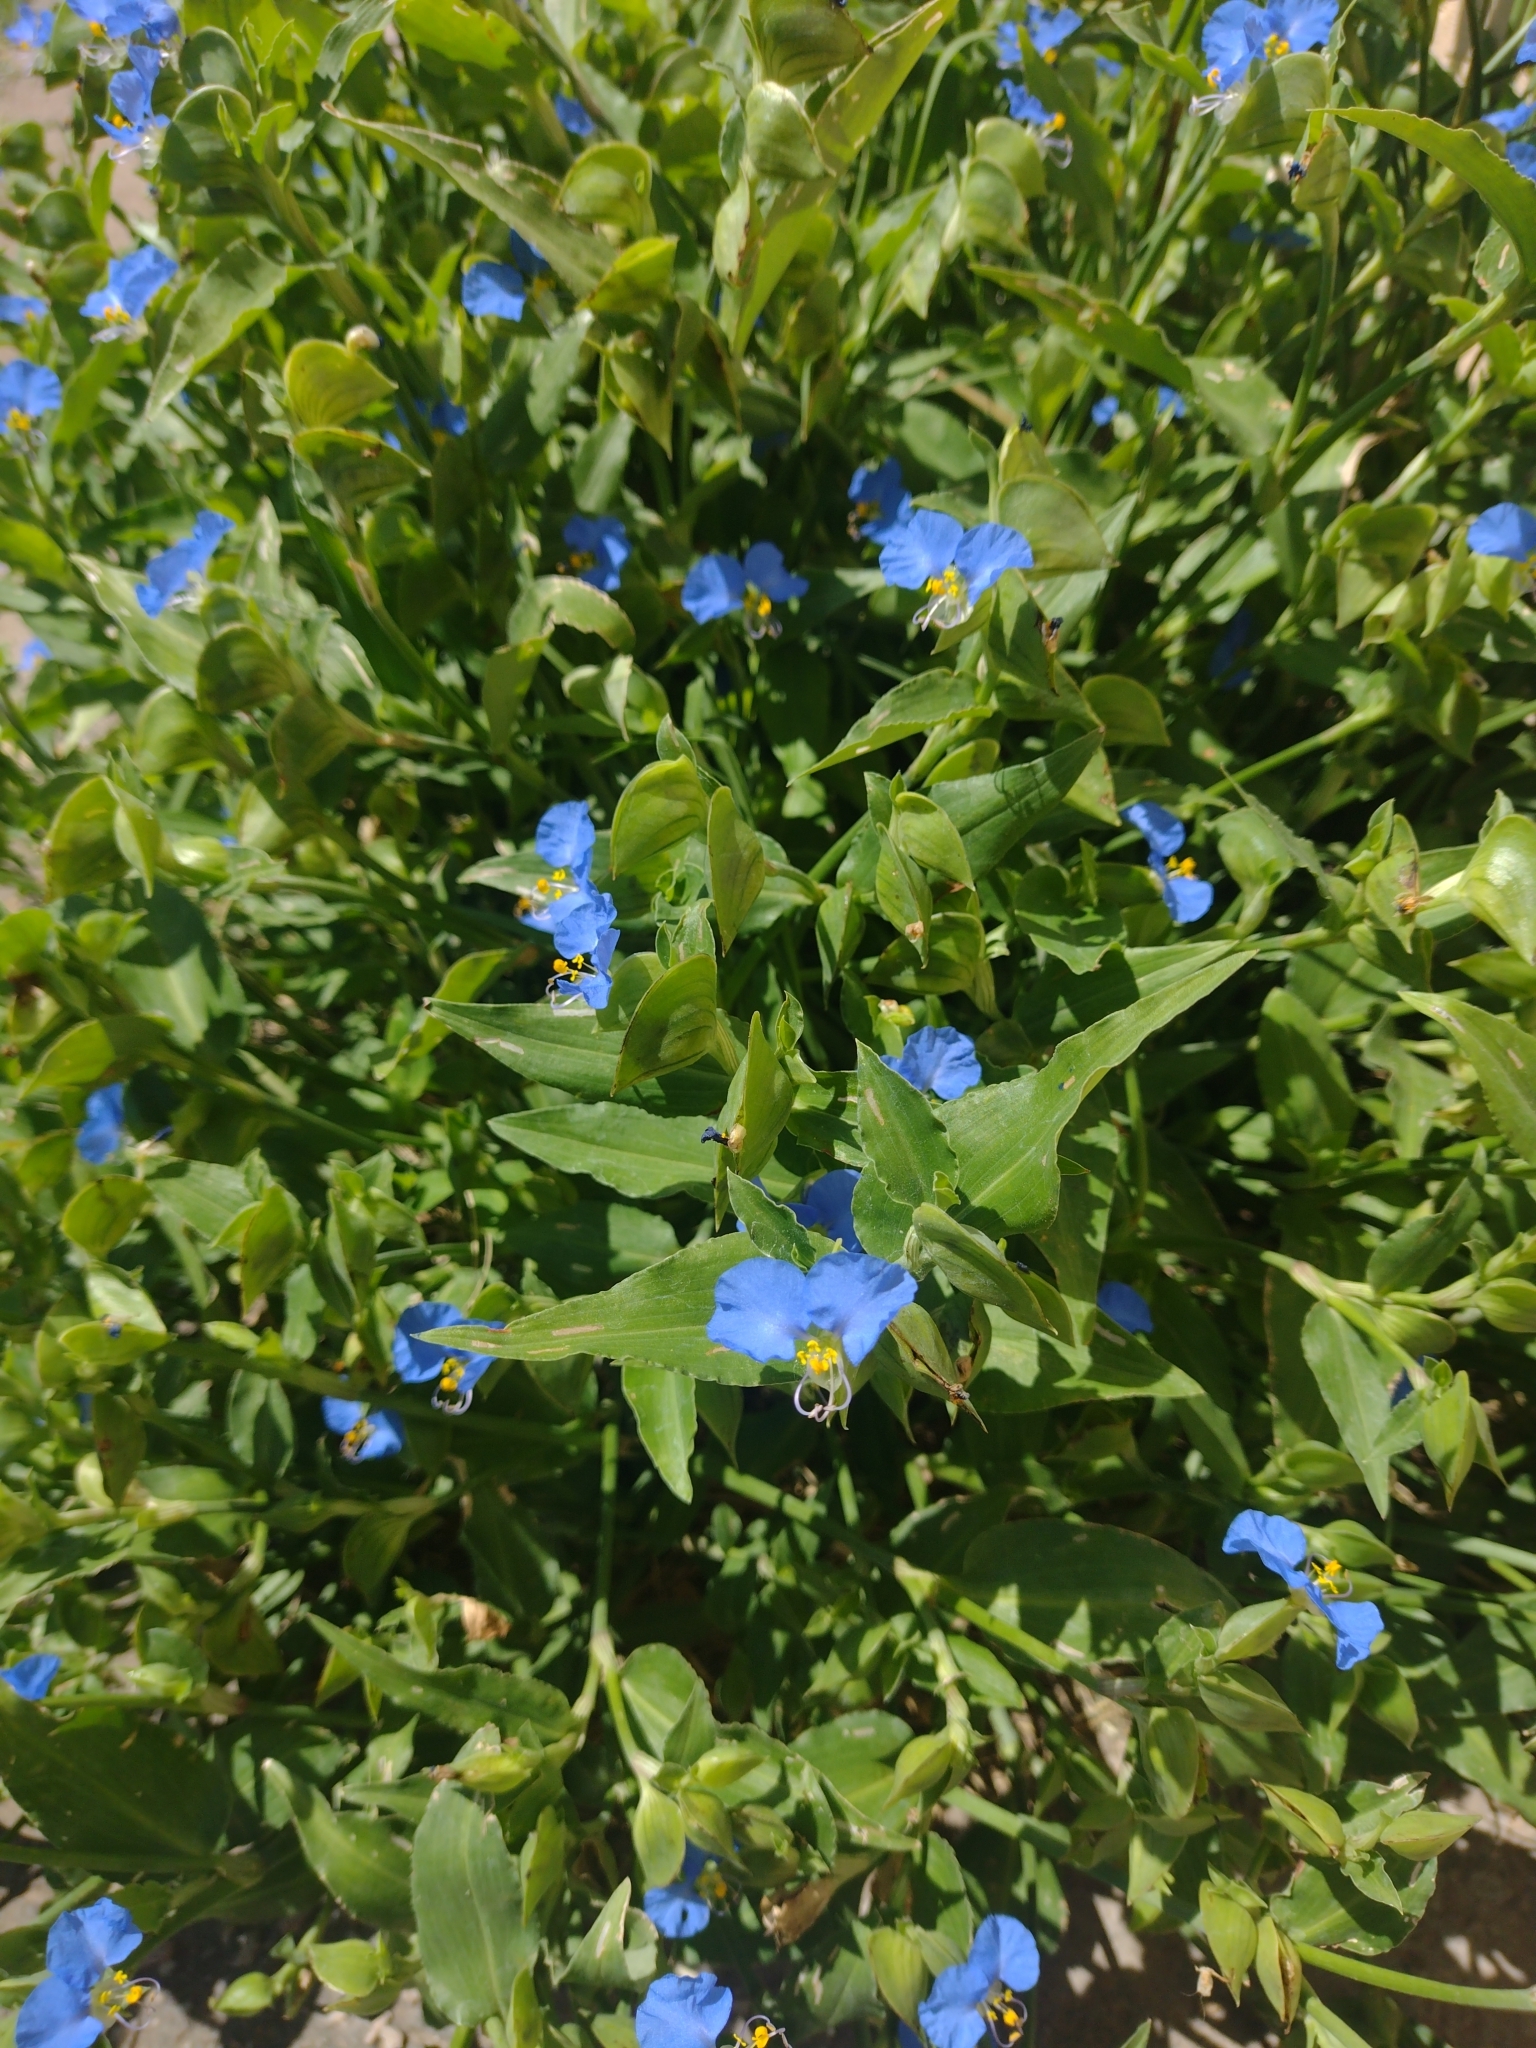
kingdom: Plantae
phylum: Tracheophyta
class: Liliopsida
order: Commelinales
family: Commelinaceae
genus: Commelina
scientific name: Commelina erecta
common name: Blousel blommetjie
